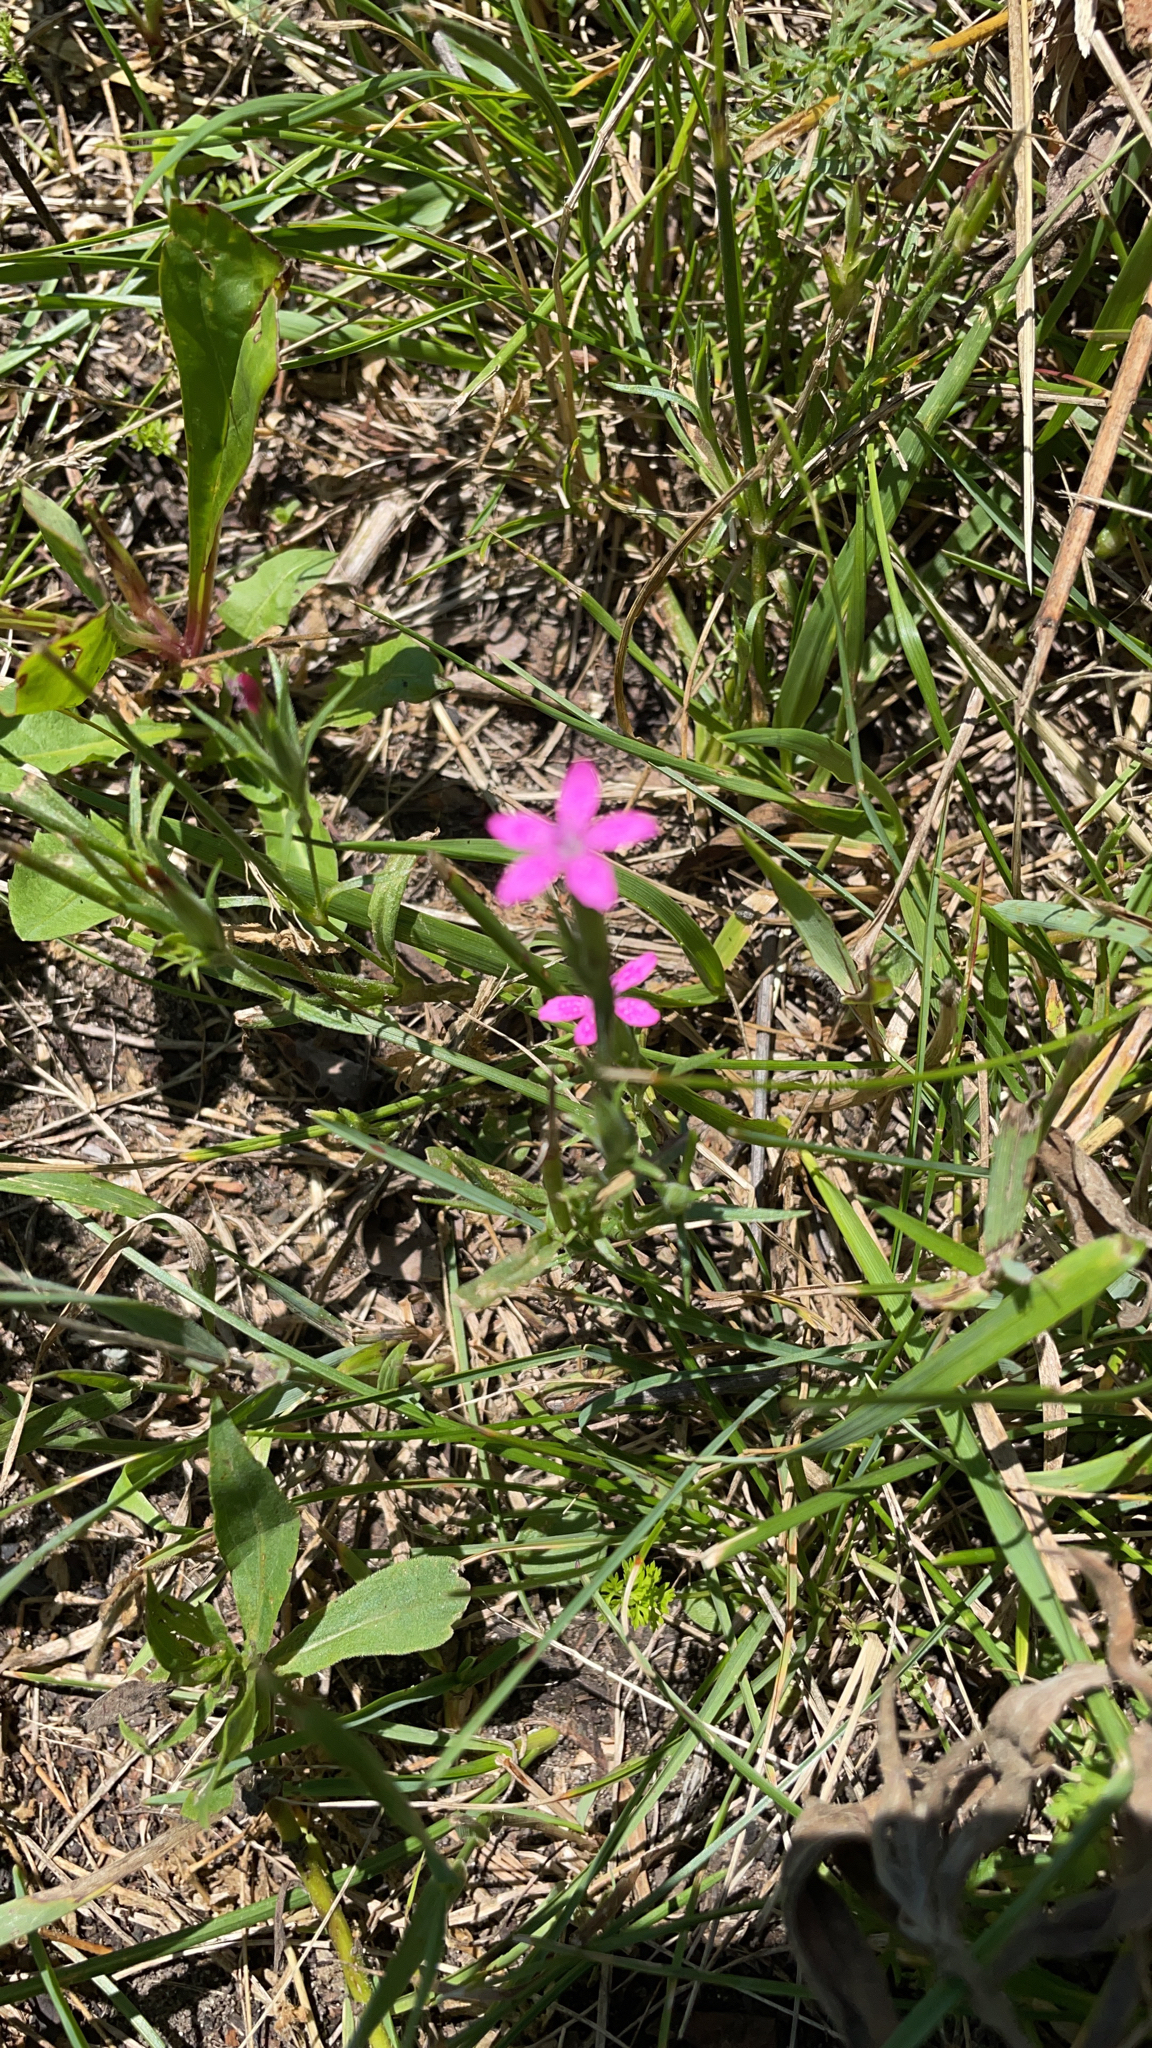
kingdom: Plantae
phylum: Tracheophyta
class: Magnoliopsida
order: Caryophyllales
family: Caryophyllaceae
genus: Dianthus
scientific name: Dianthus armeria
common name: Deptford pink
